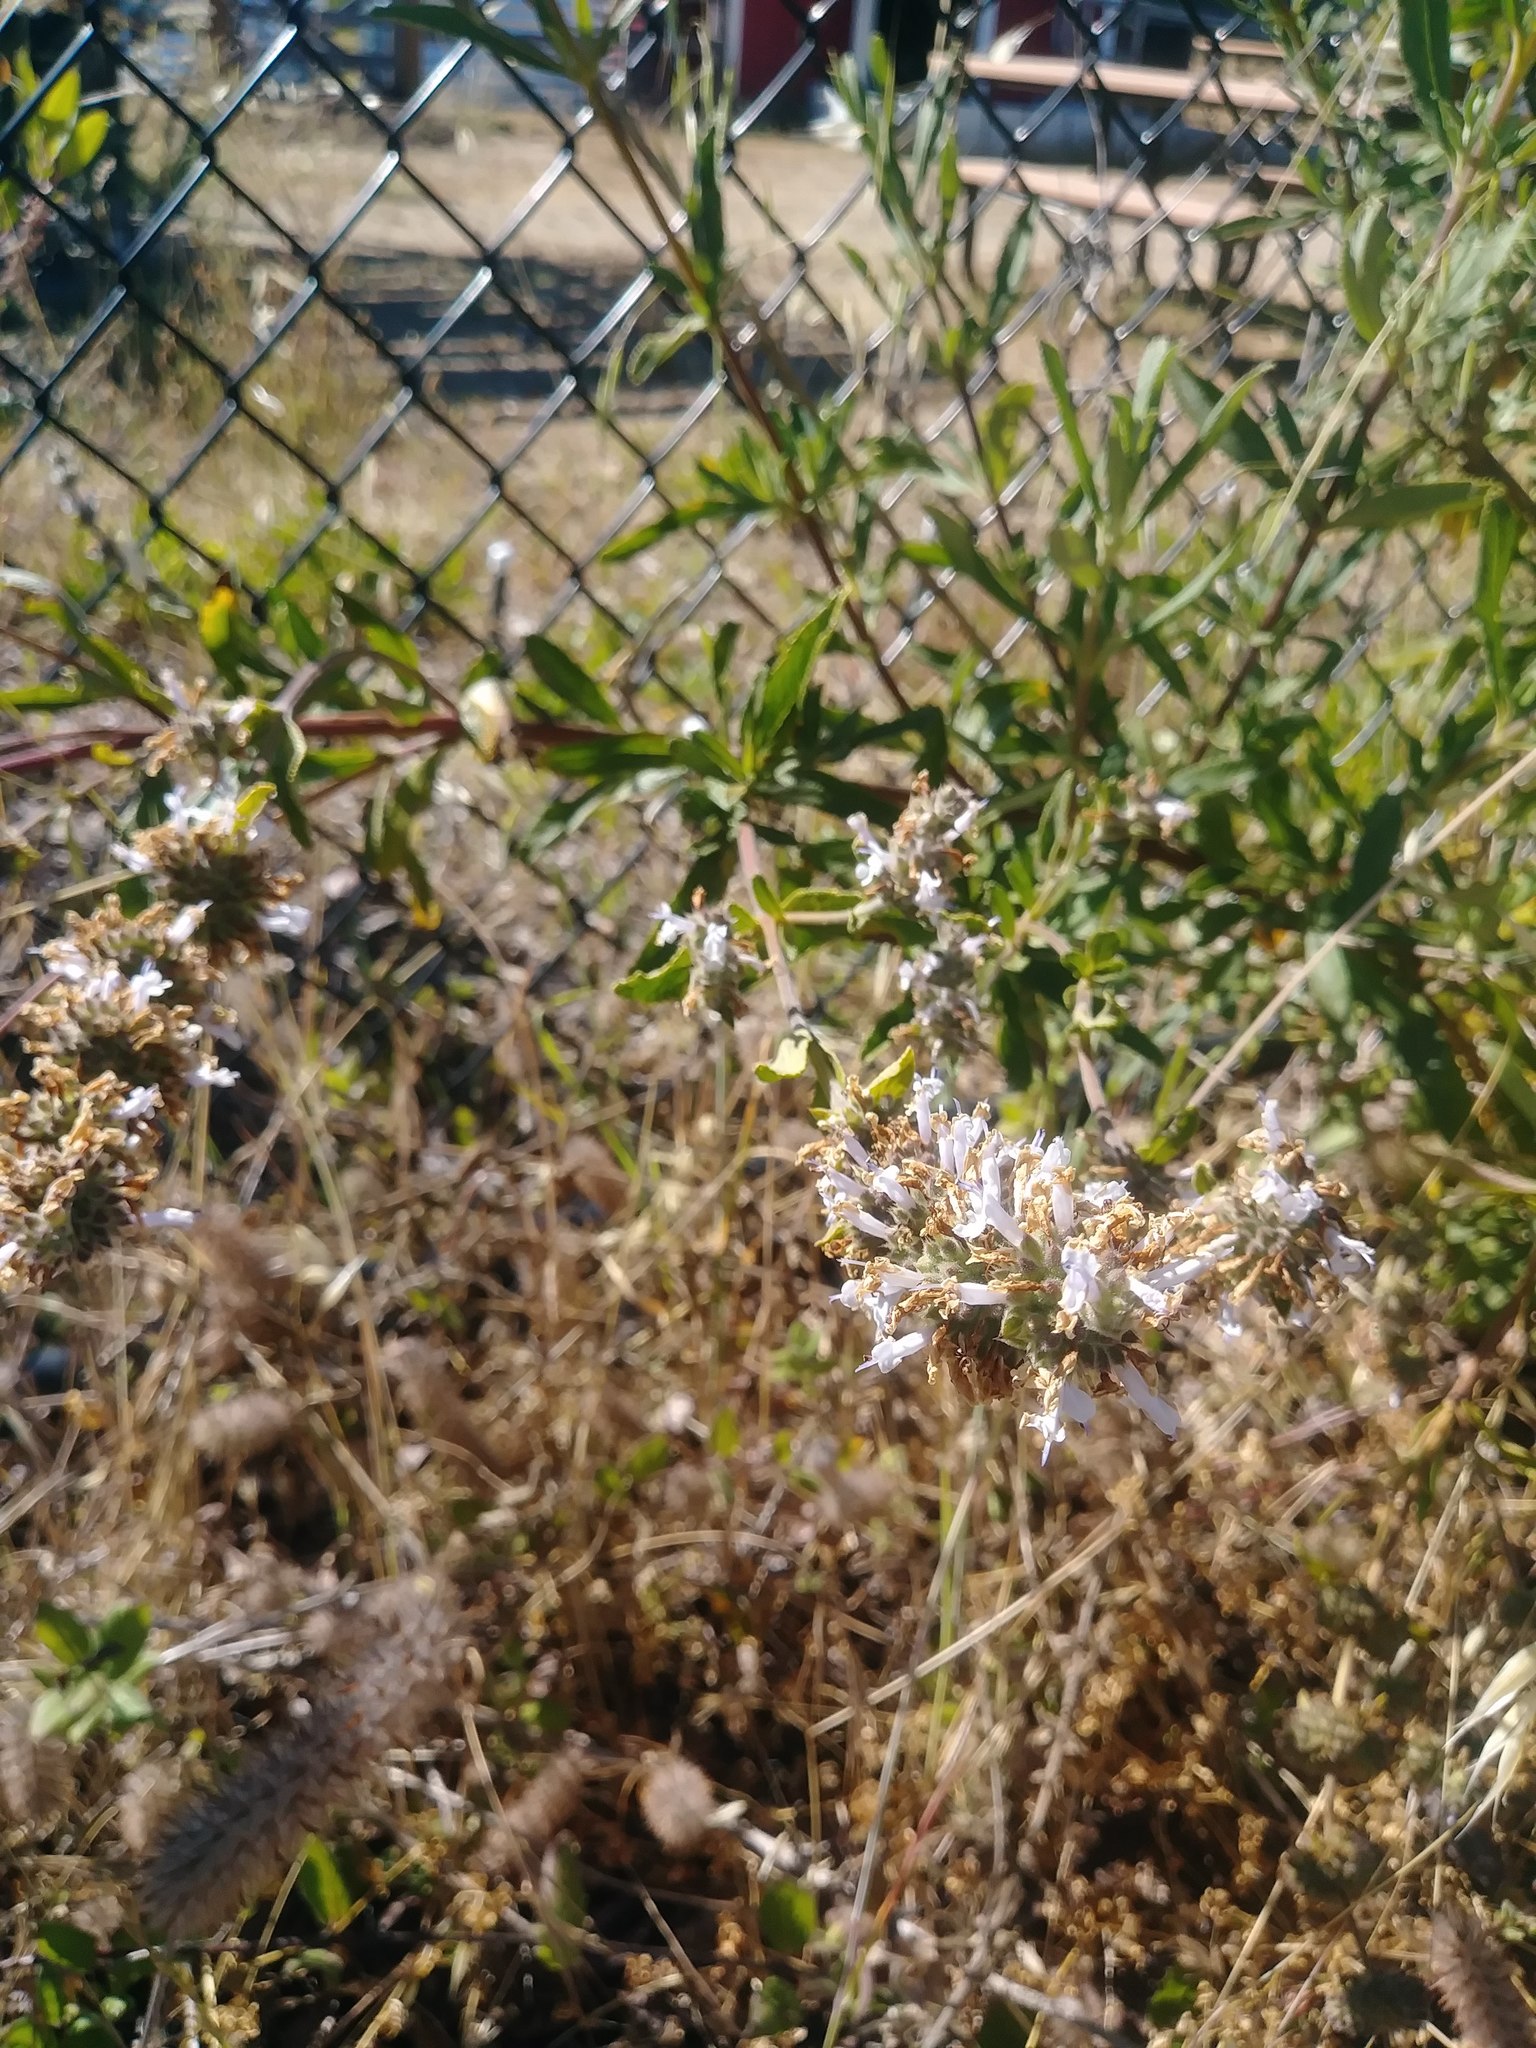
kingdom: Plantae
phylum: Tracheophyta
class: Magnoliopsida
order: Lamiales
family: Lamiaceae
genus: Salvia
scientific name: Salvia mellifera
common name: Black sage
